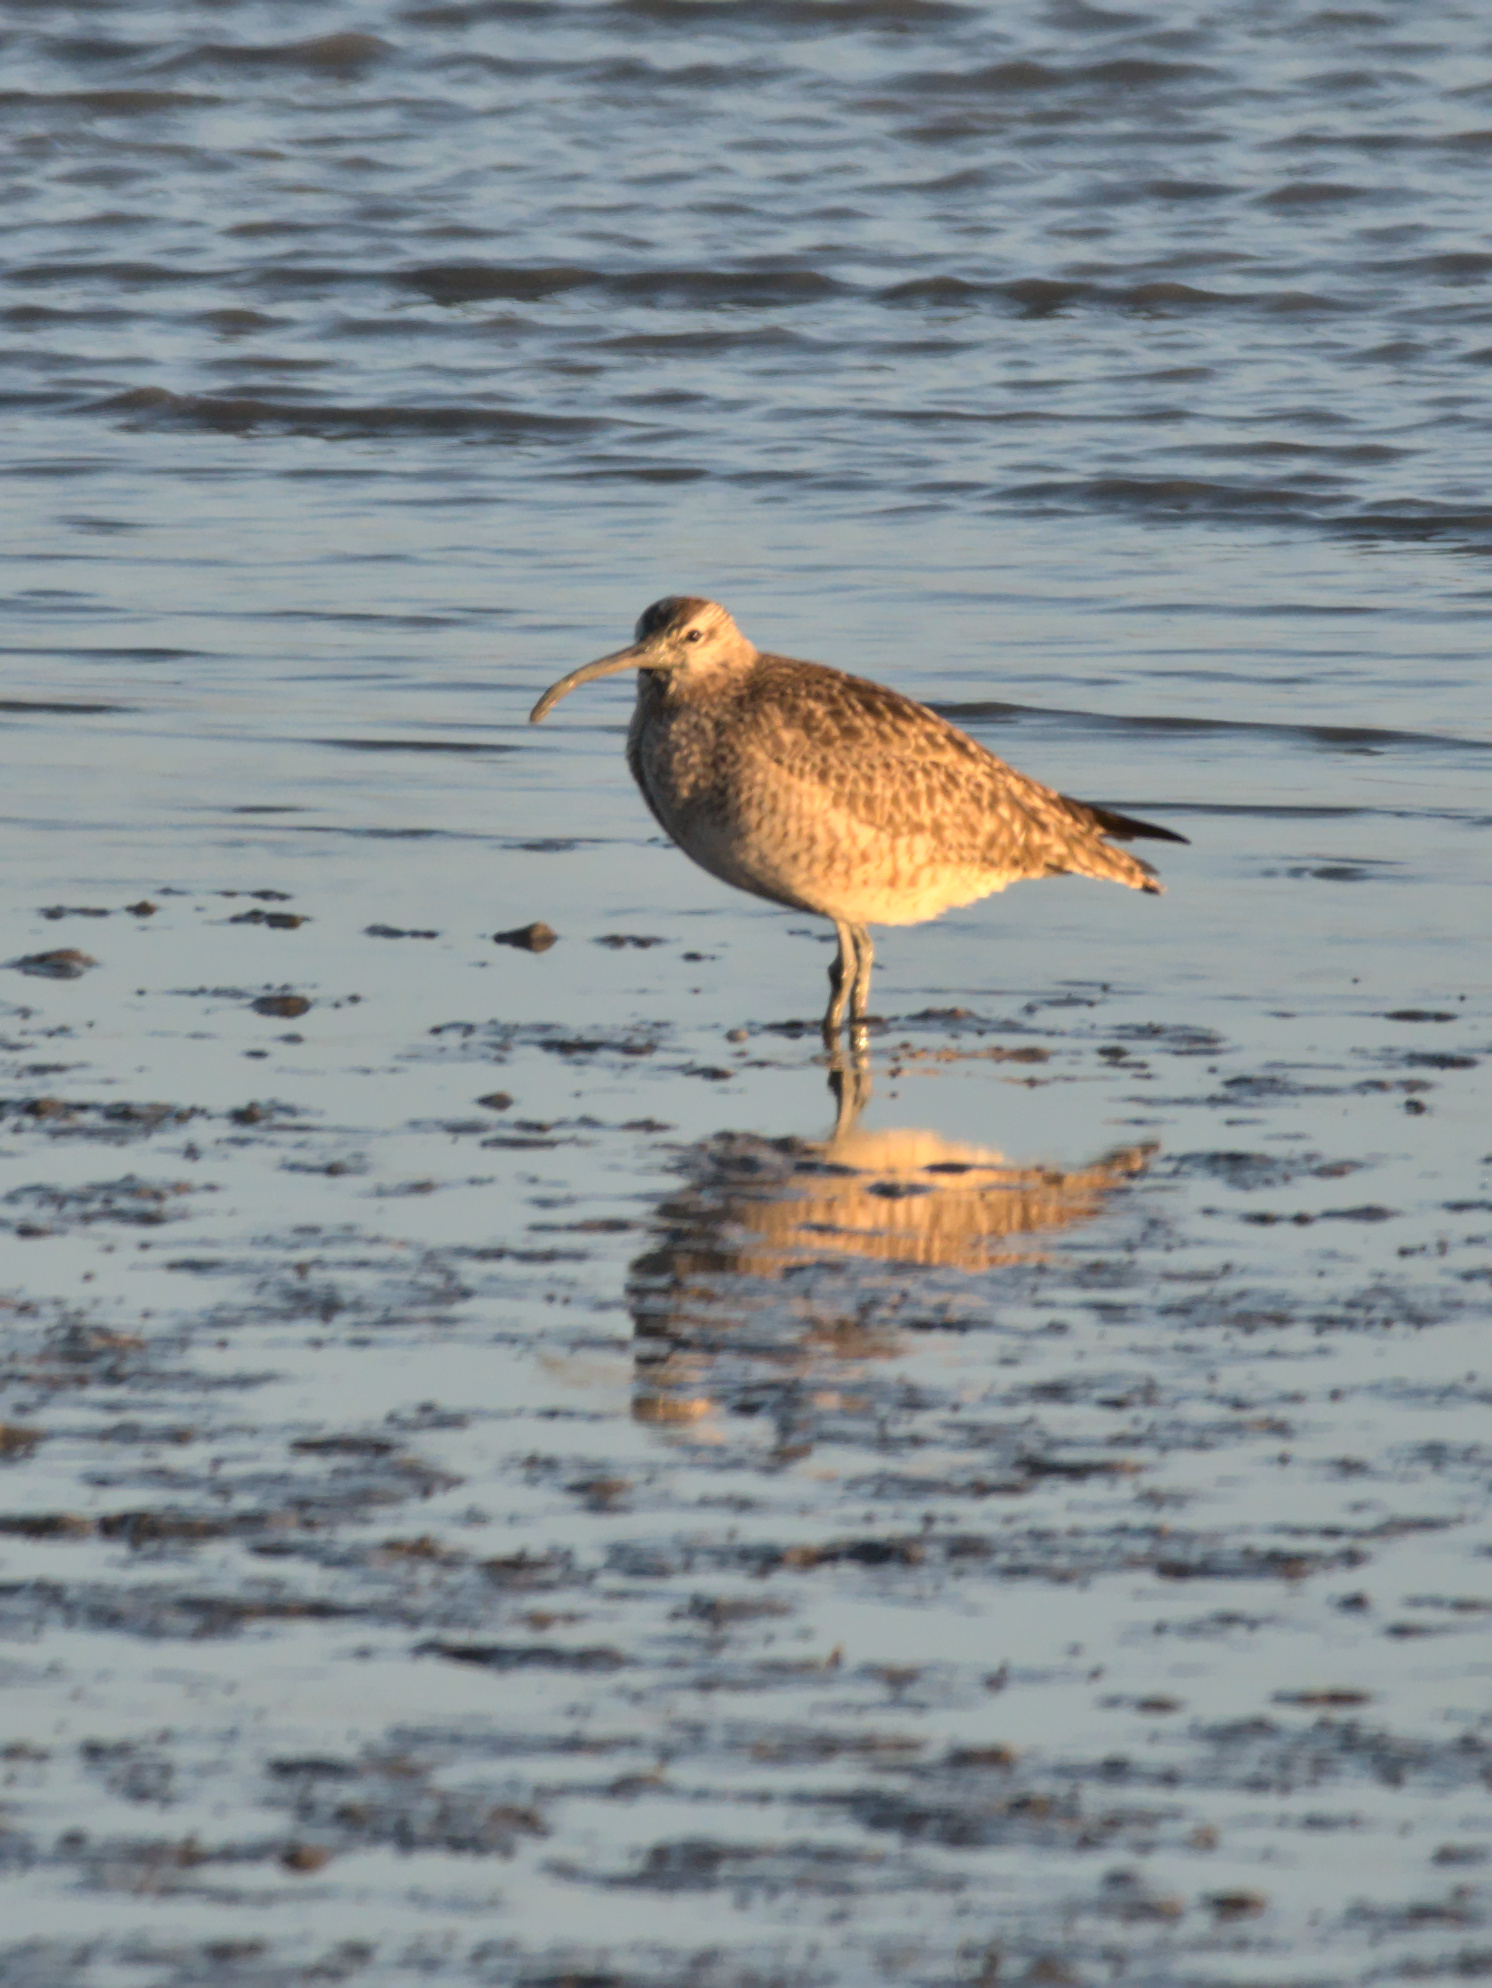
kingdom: Animalia
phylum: Chordata
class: Aves
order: Charadriiformes
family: Scolopacidae
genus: Numenius
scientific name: Numenius phaeopus
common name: Whimbrel
